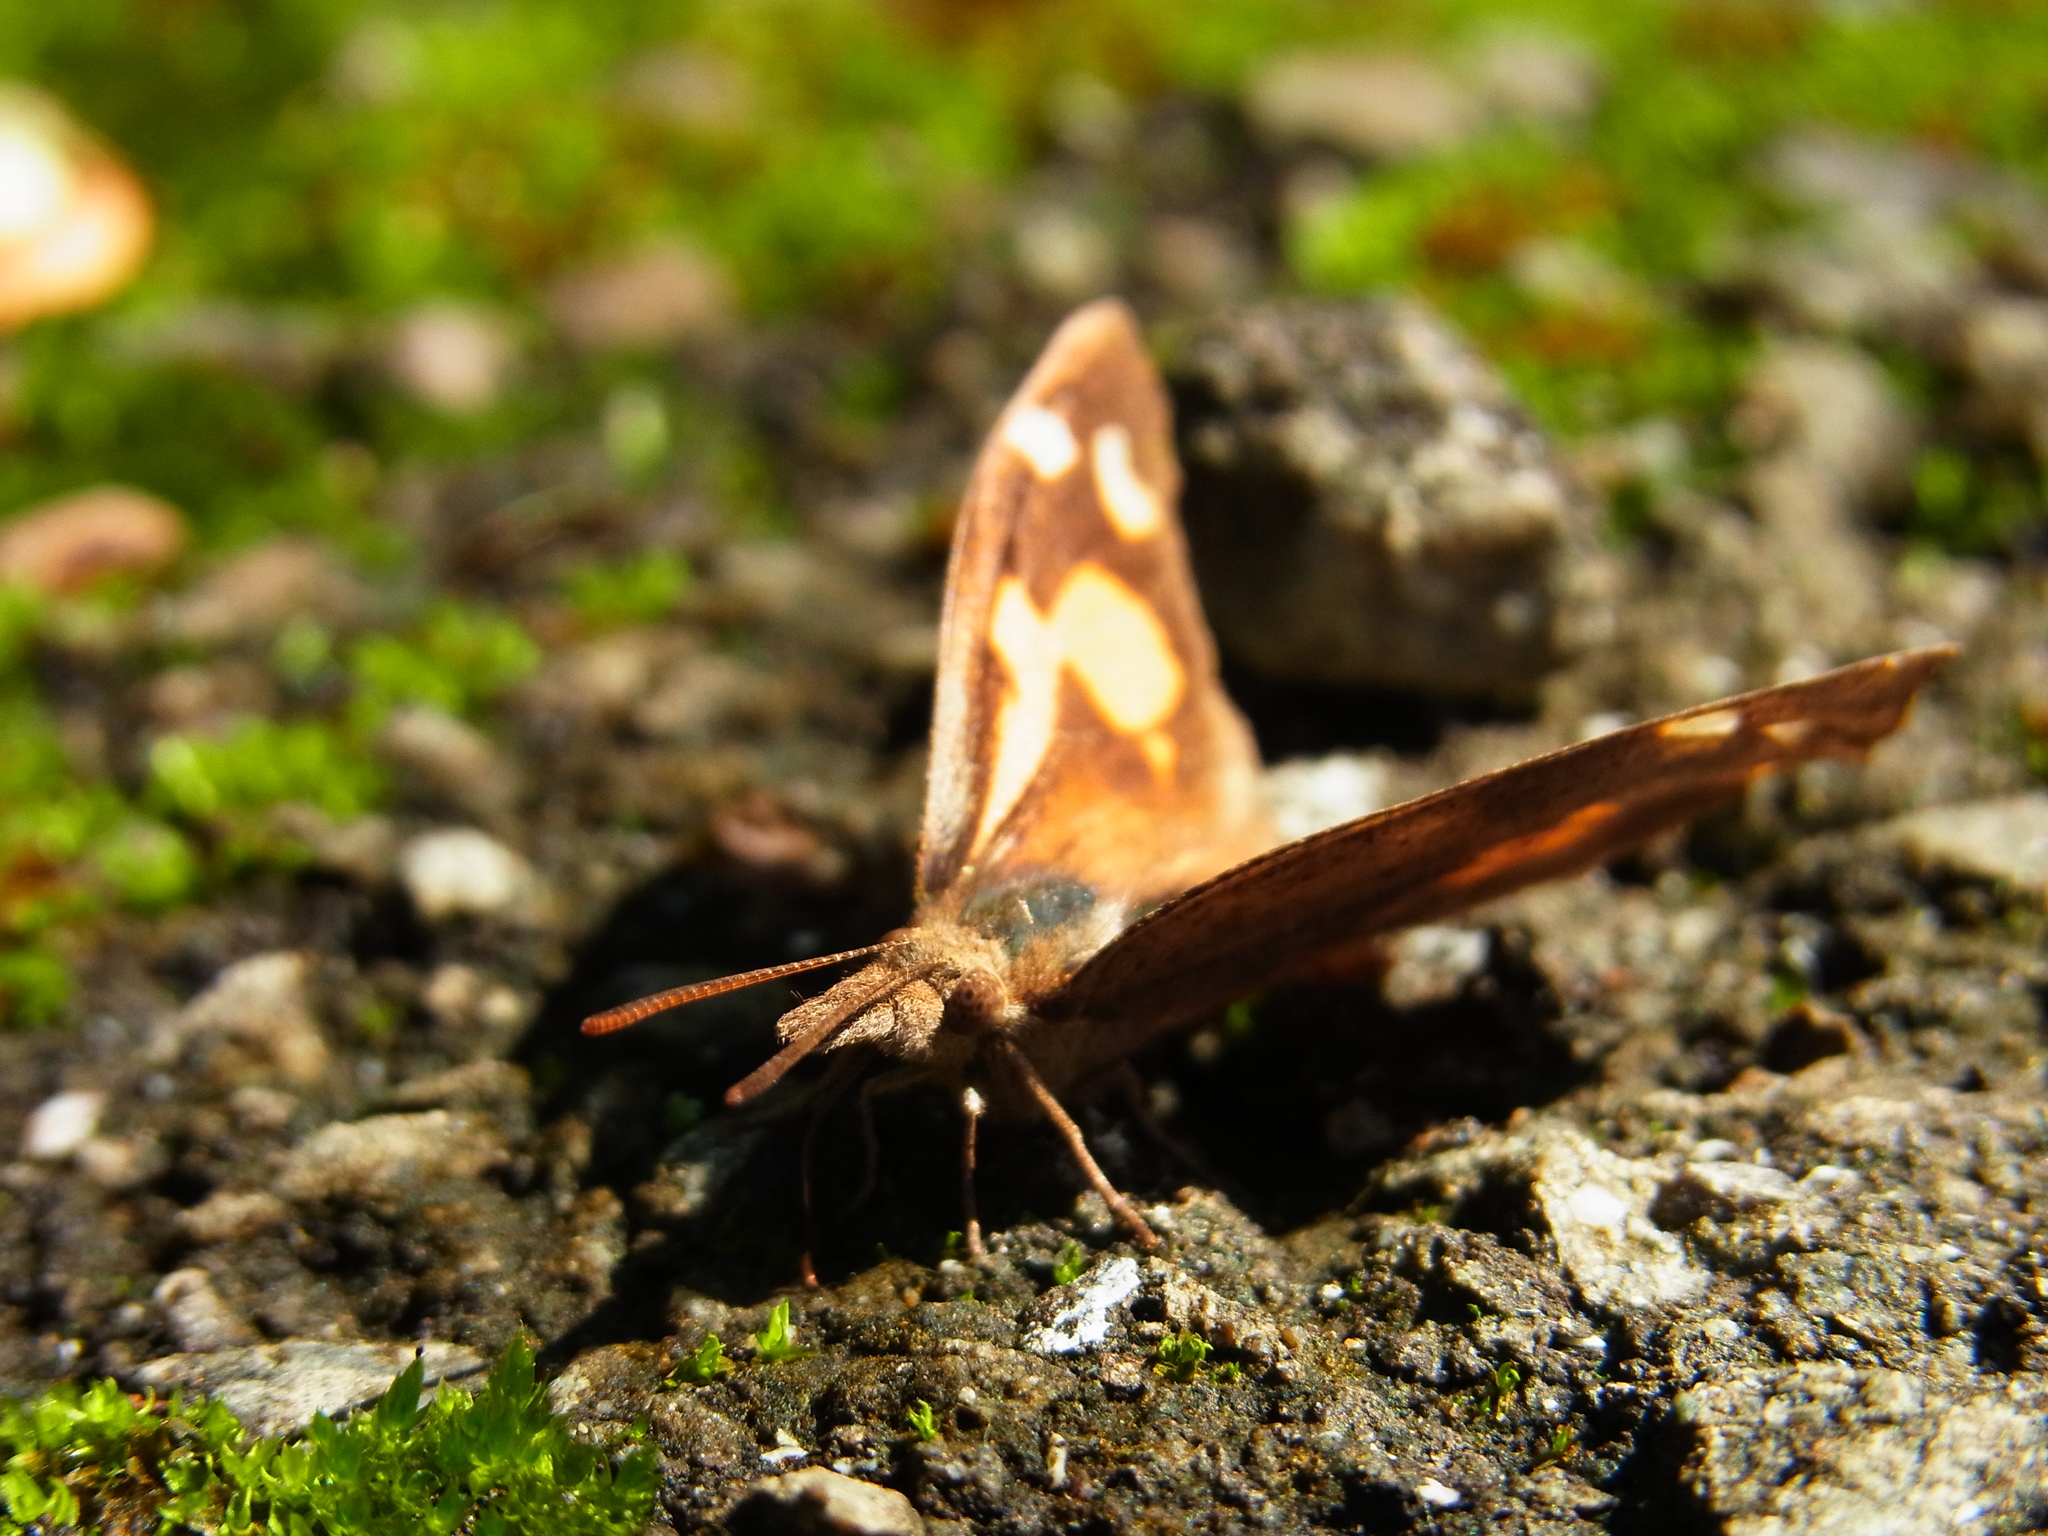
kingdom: Animalia
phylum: Arthropoda
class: Insecta
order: Lepidoptera
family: Nymphalidae
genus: Libythea
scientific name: Libythea lepita
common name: Common beak
